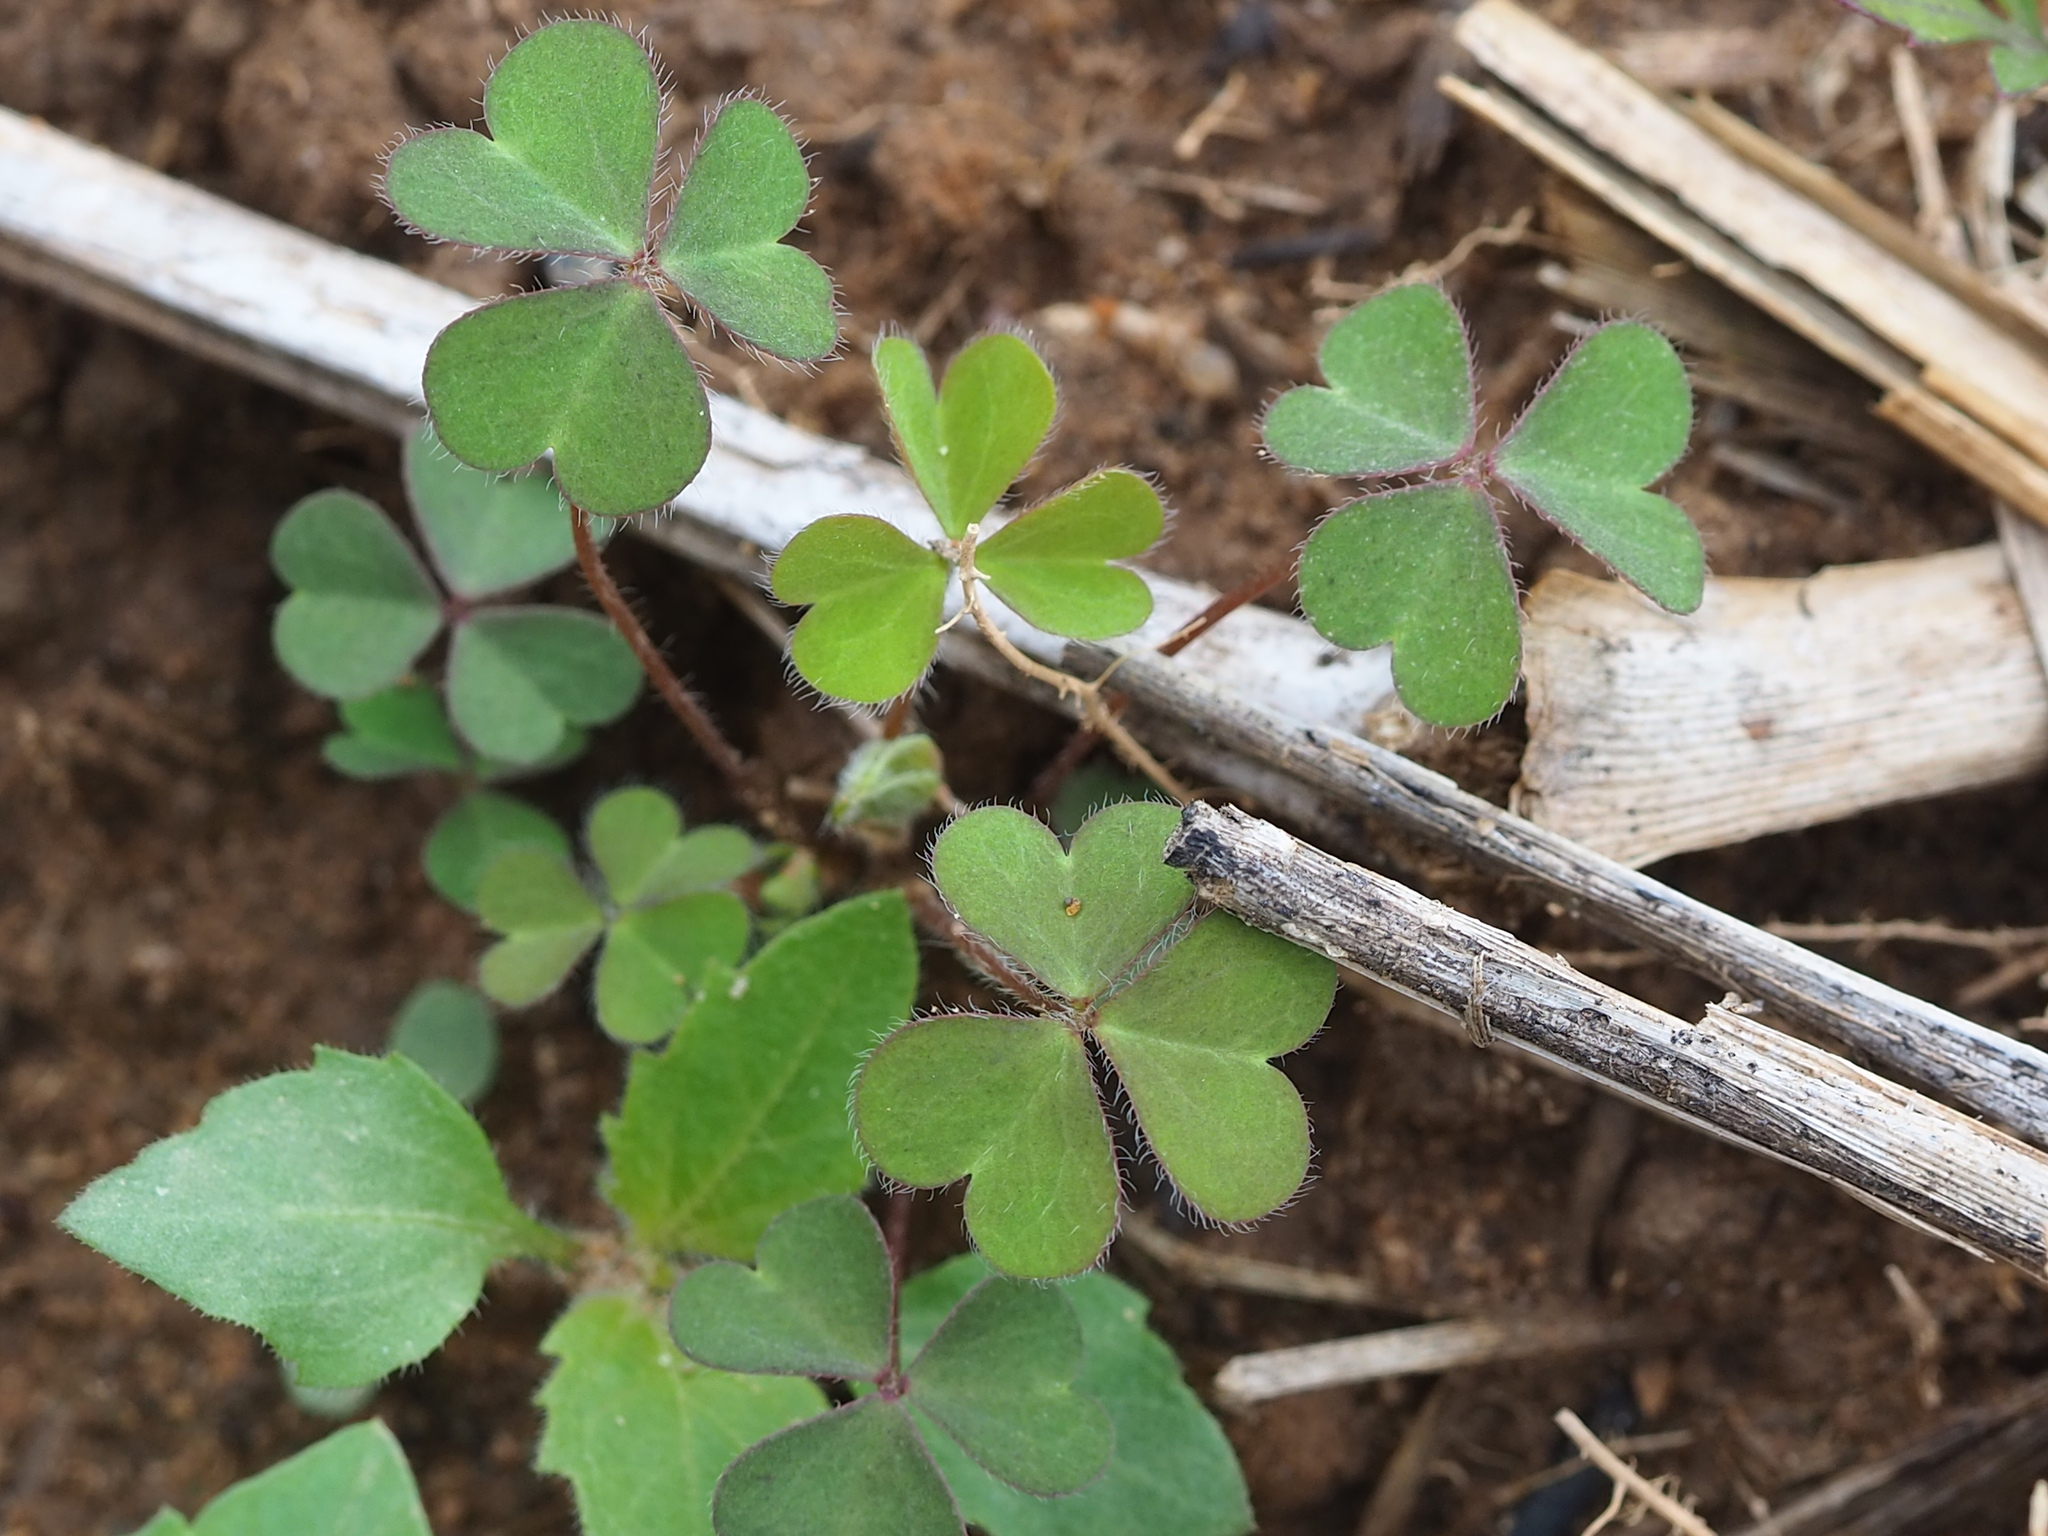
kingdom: Plantae
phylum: Tracheophyta
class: Magnoliopsida
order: Oxalidales
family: Oxalidaceae
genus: Oxalis
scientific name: Oxalis corniculata
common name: Procumbent yellow-sorrel
